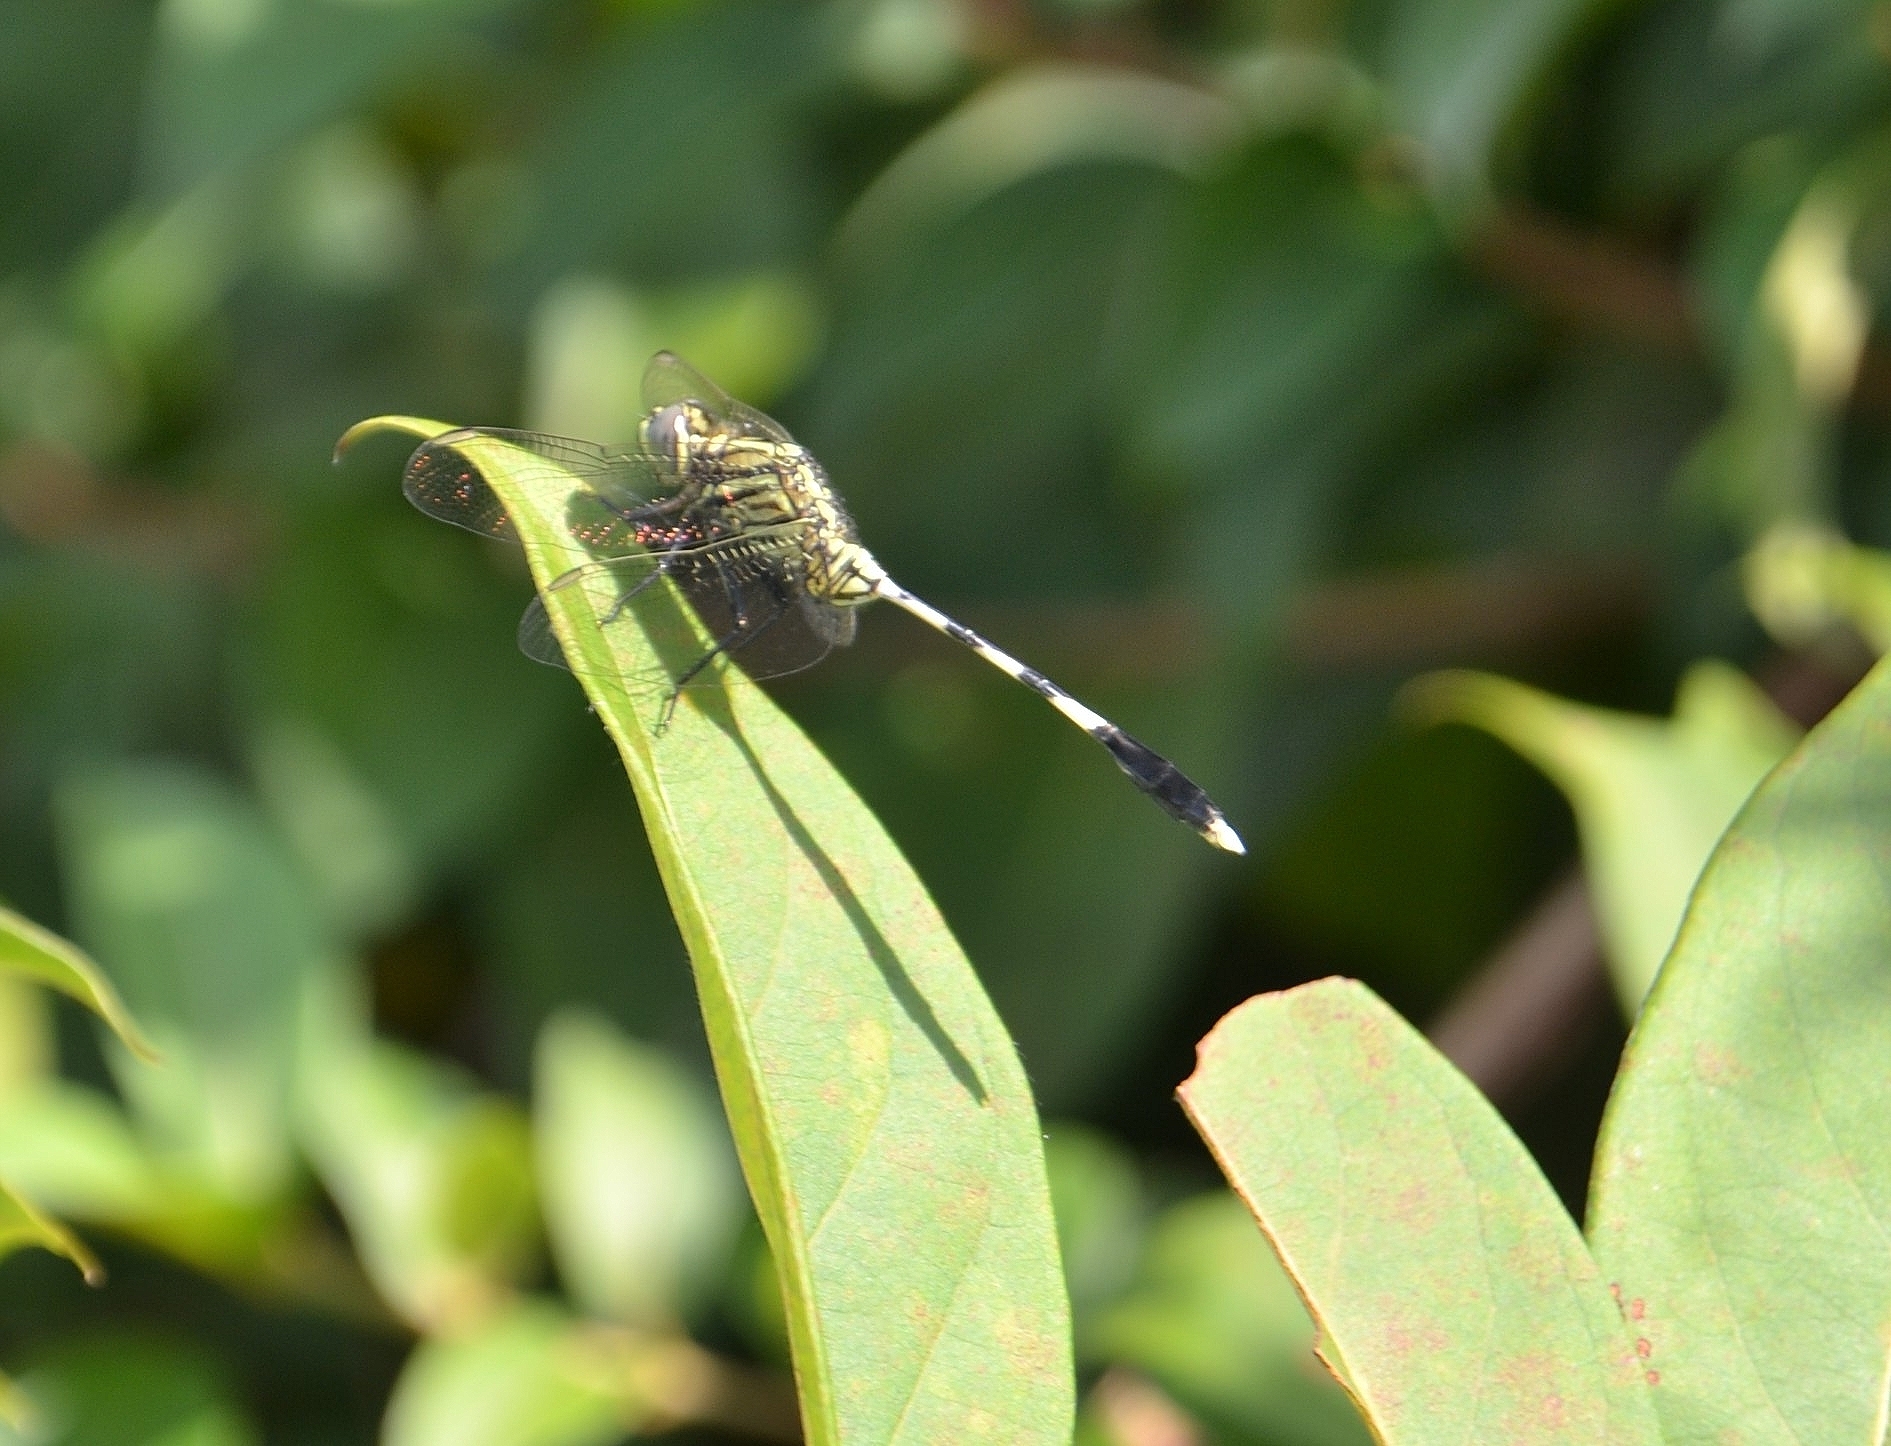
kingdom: Animalia
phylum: Arthropoda
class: Insecta
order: Odonata
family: Libellulidae
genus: Orthetrum
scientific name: Orthetrum sabina
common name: Slender skimmer
